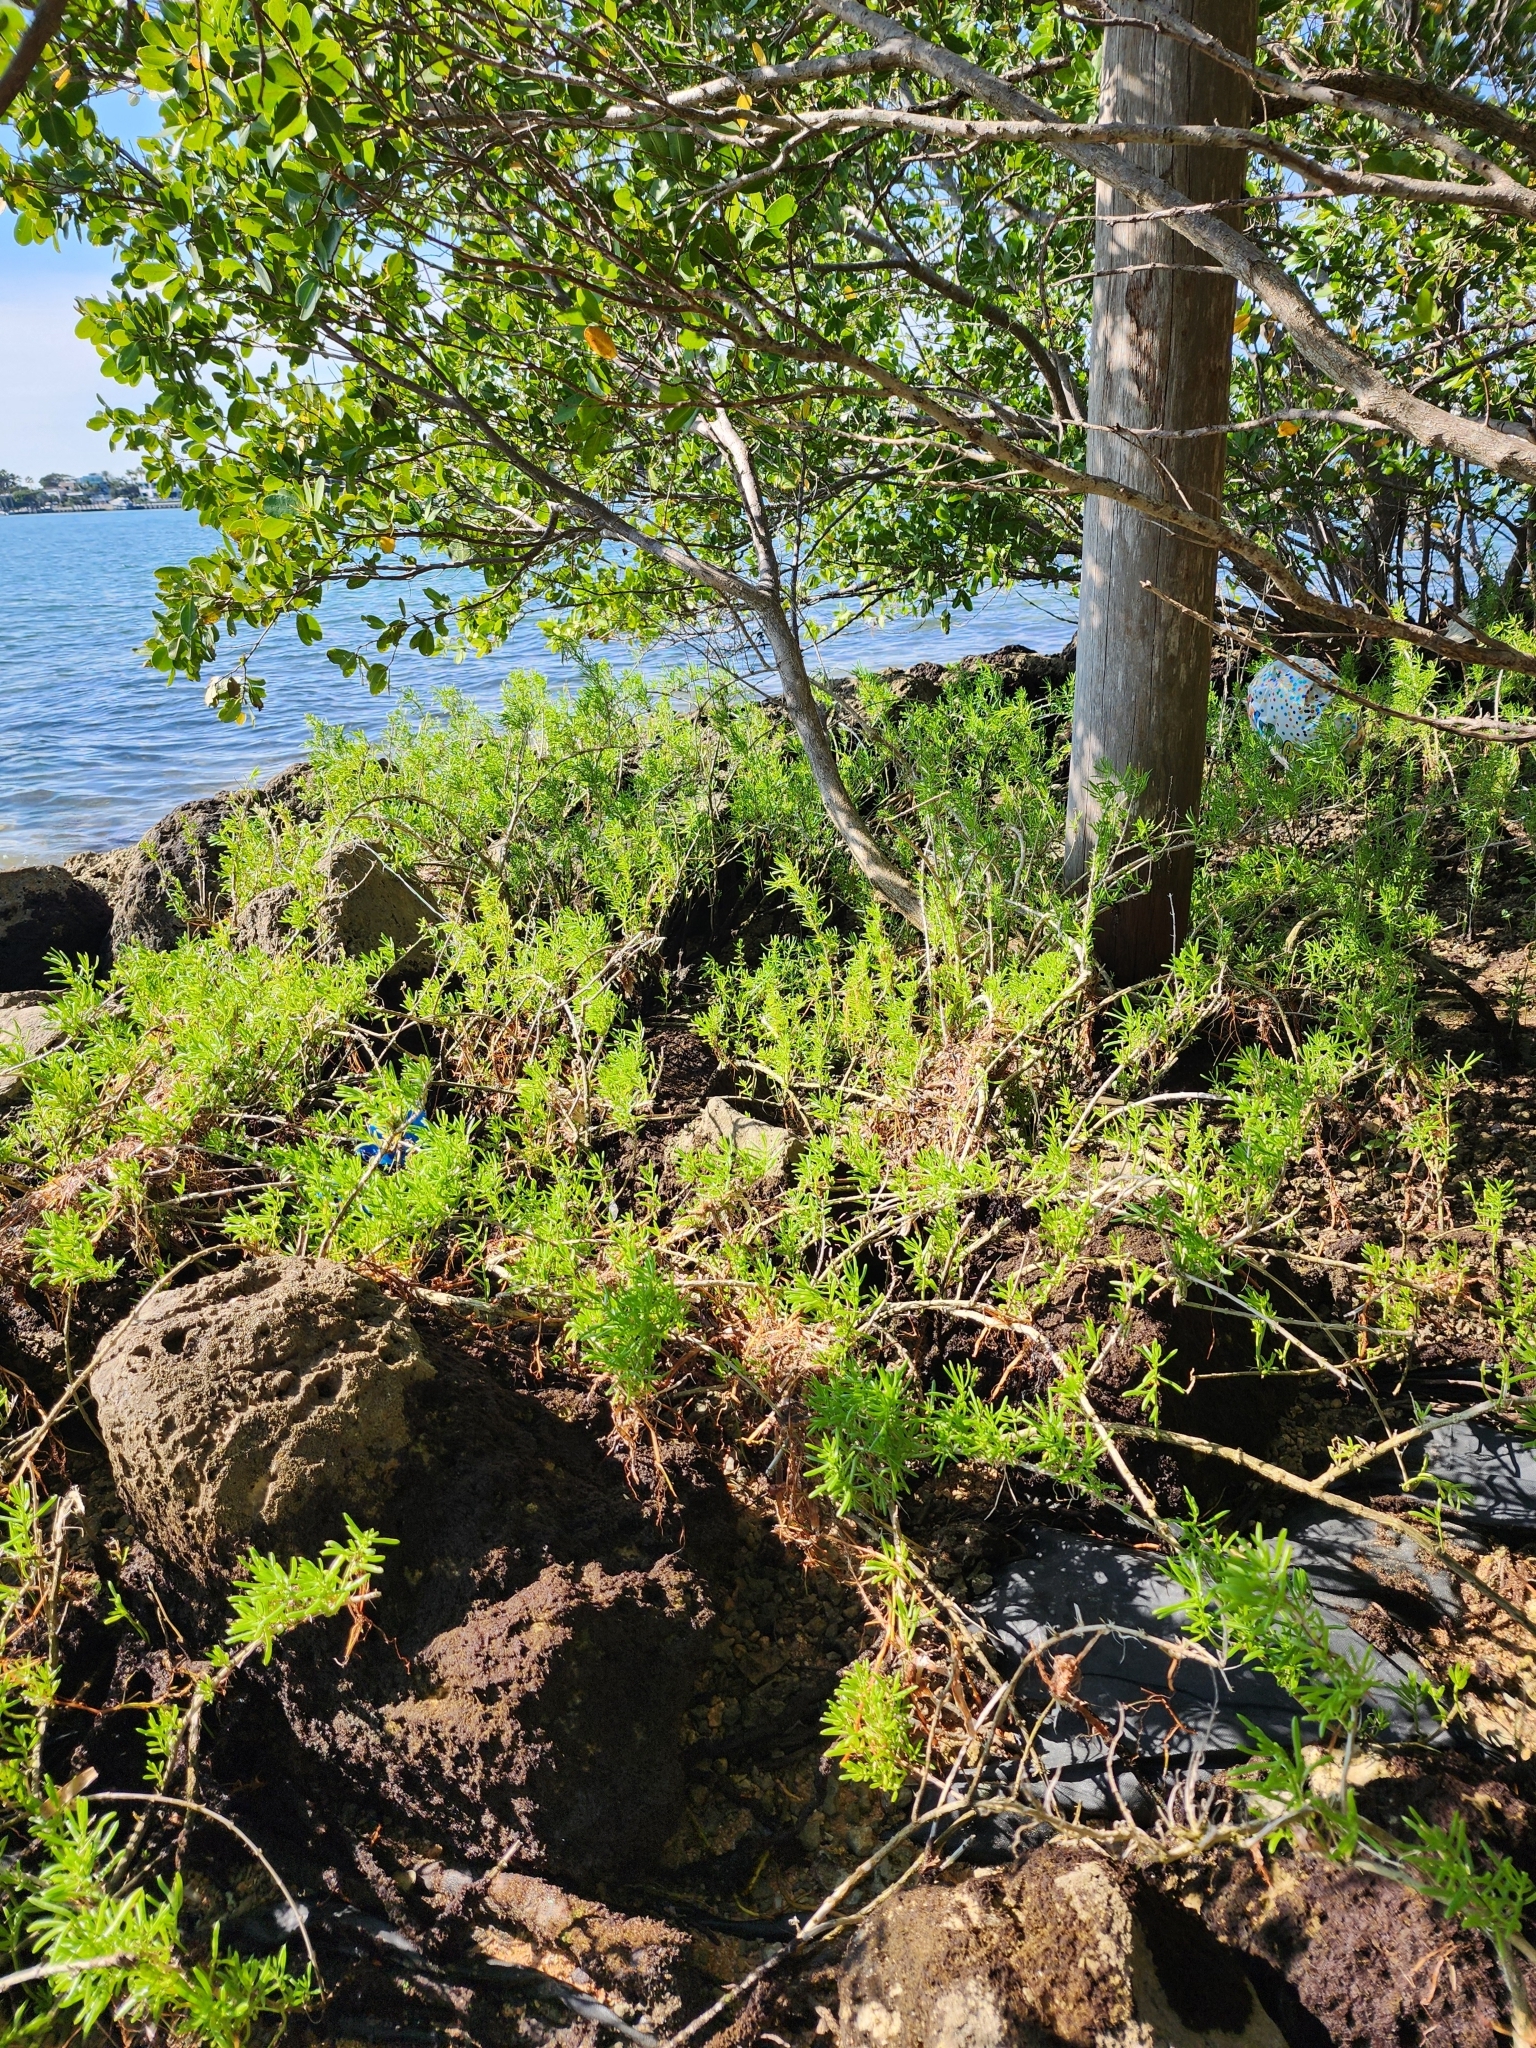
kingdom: Plantae
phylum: Tracheophyta
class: Magnoliopsida
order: Brassicales
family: Bataceae
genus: Batis
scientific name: Batis maritima
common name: Turtleweed
